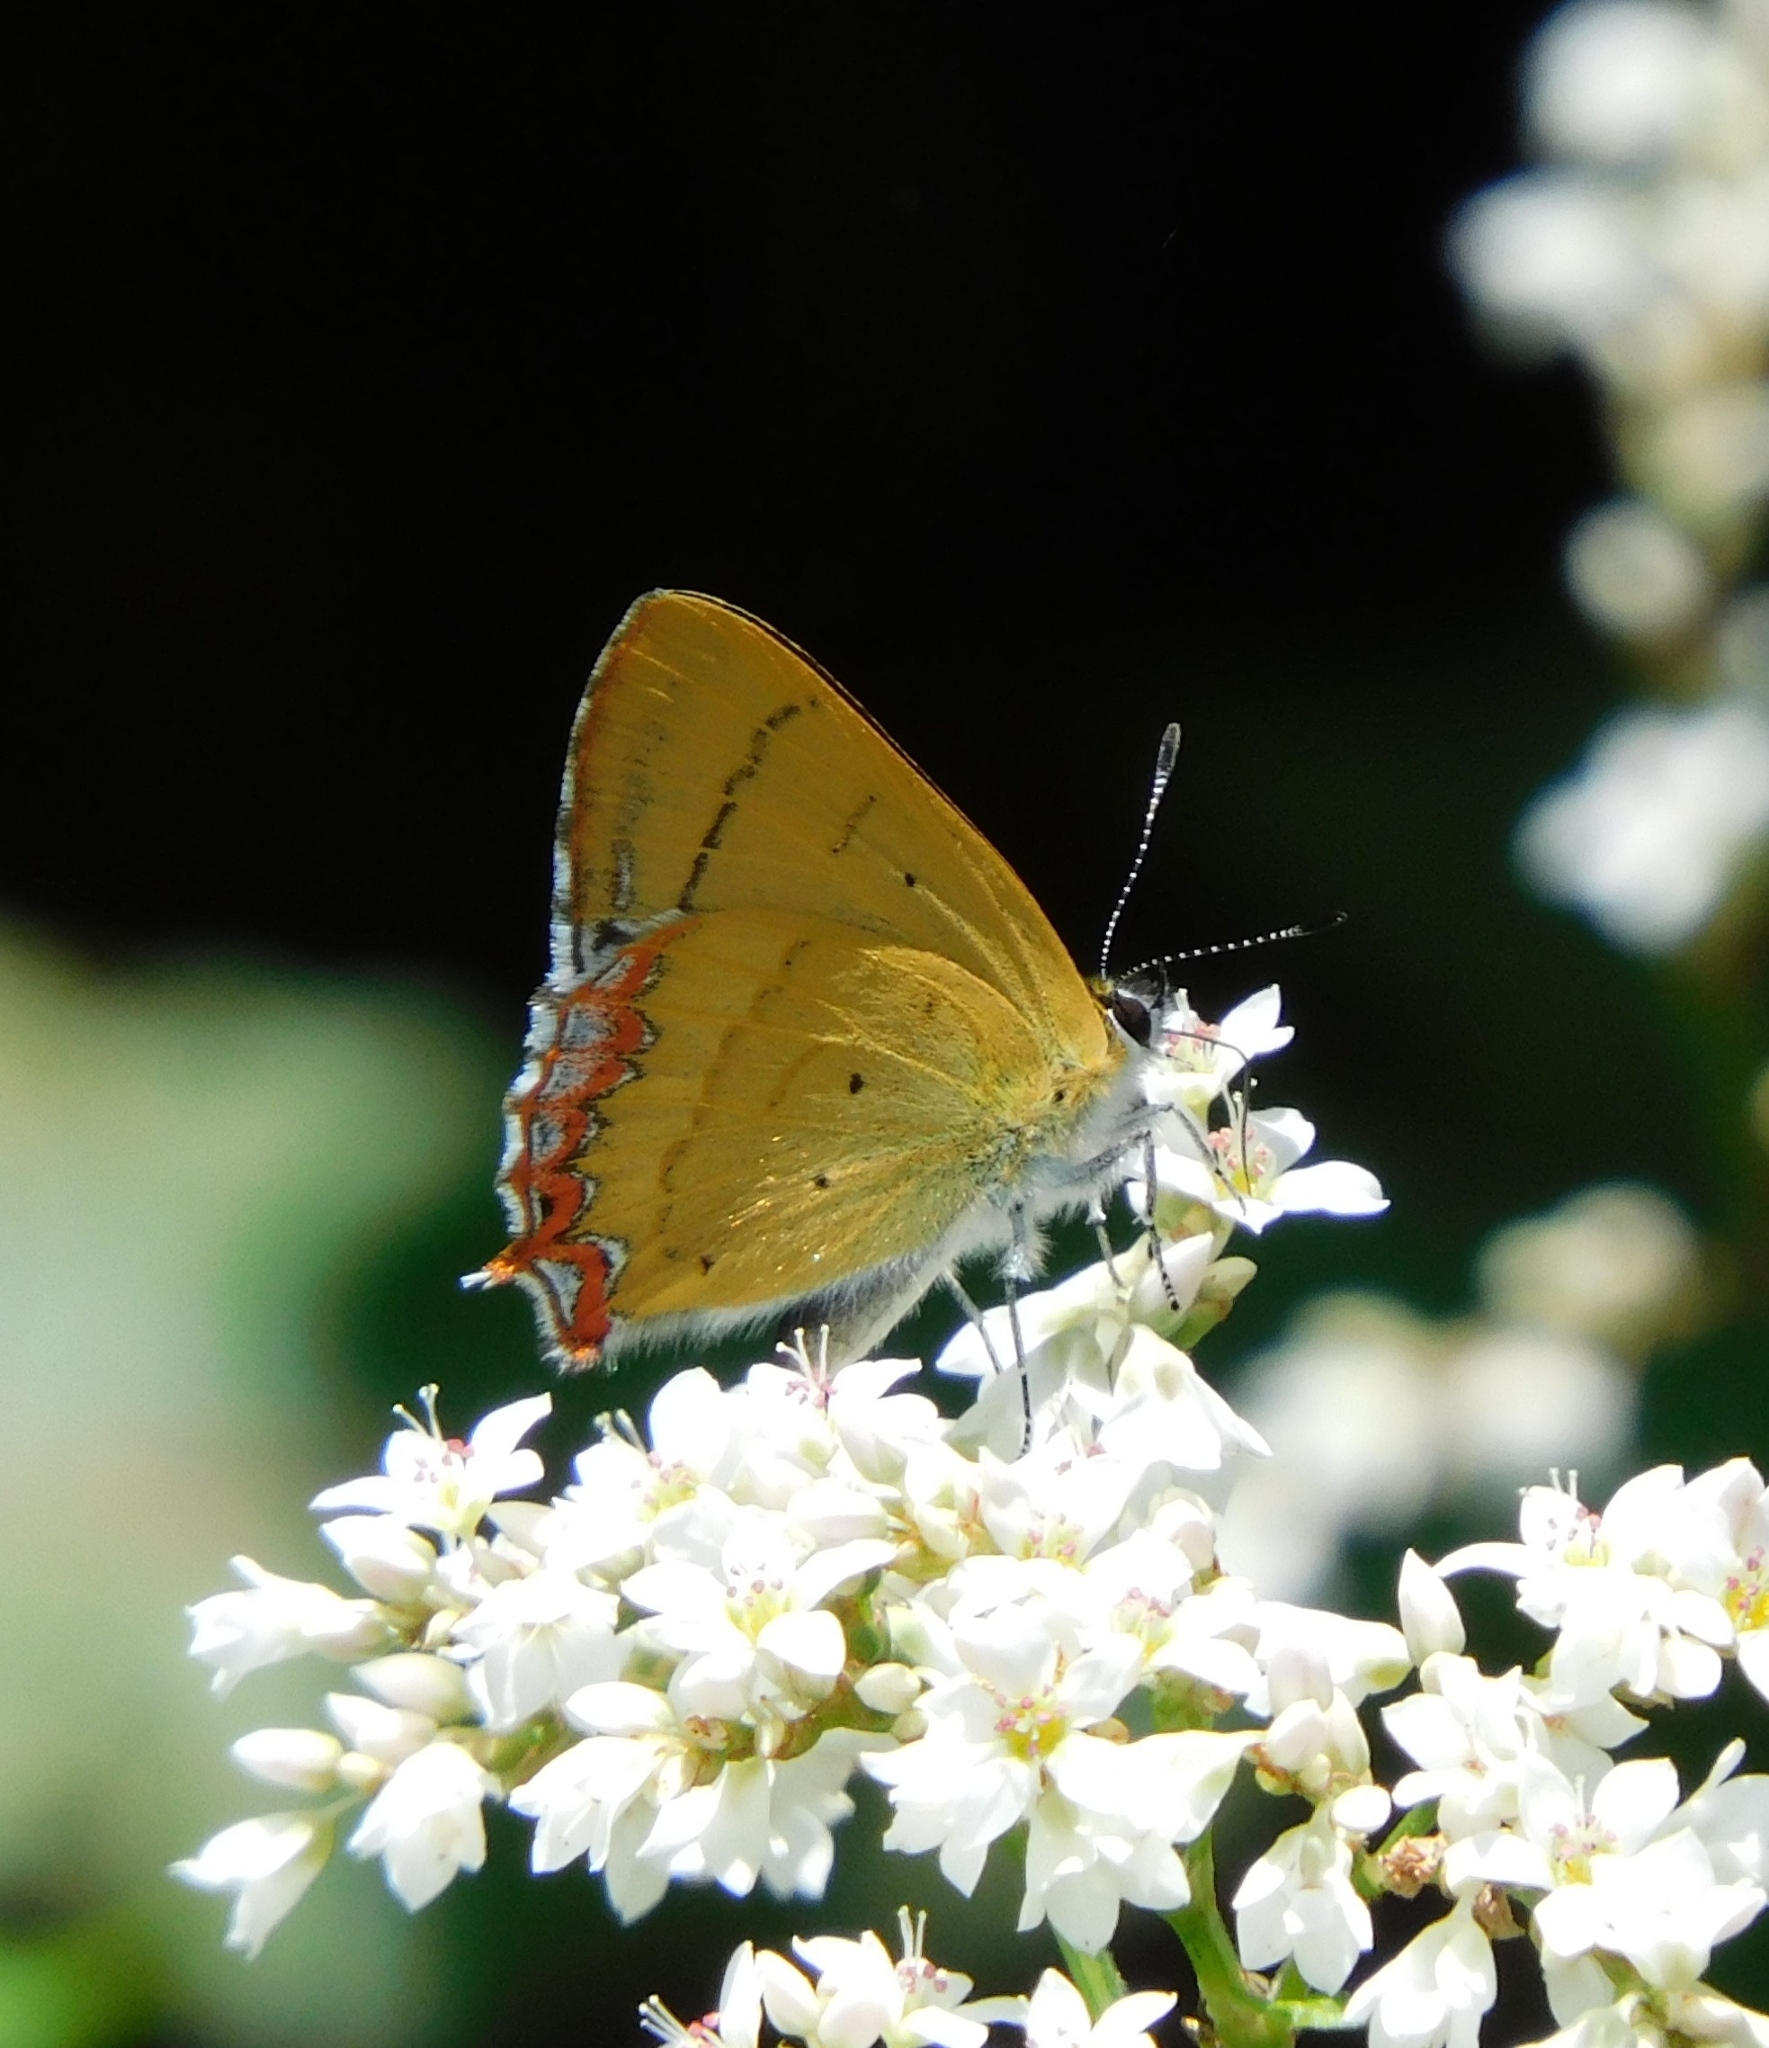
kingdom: Animalia
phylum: Arthropoda
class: Insecta
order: Lepidoptera
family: Lycaenidae
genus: Heliophorus
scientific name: Heliophorus
